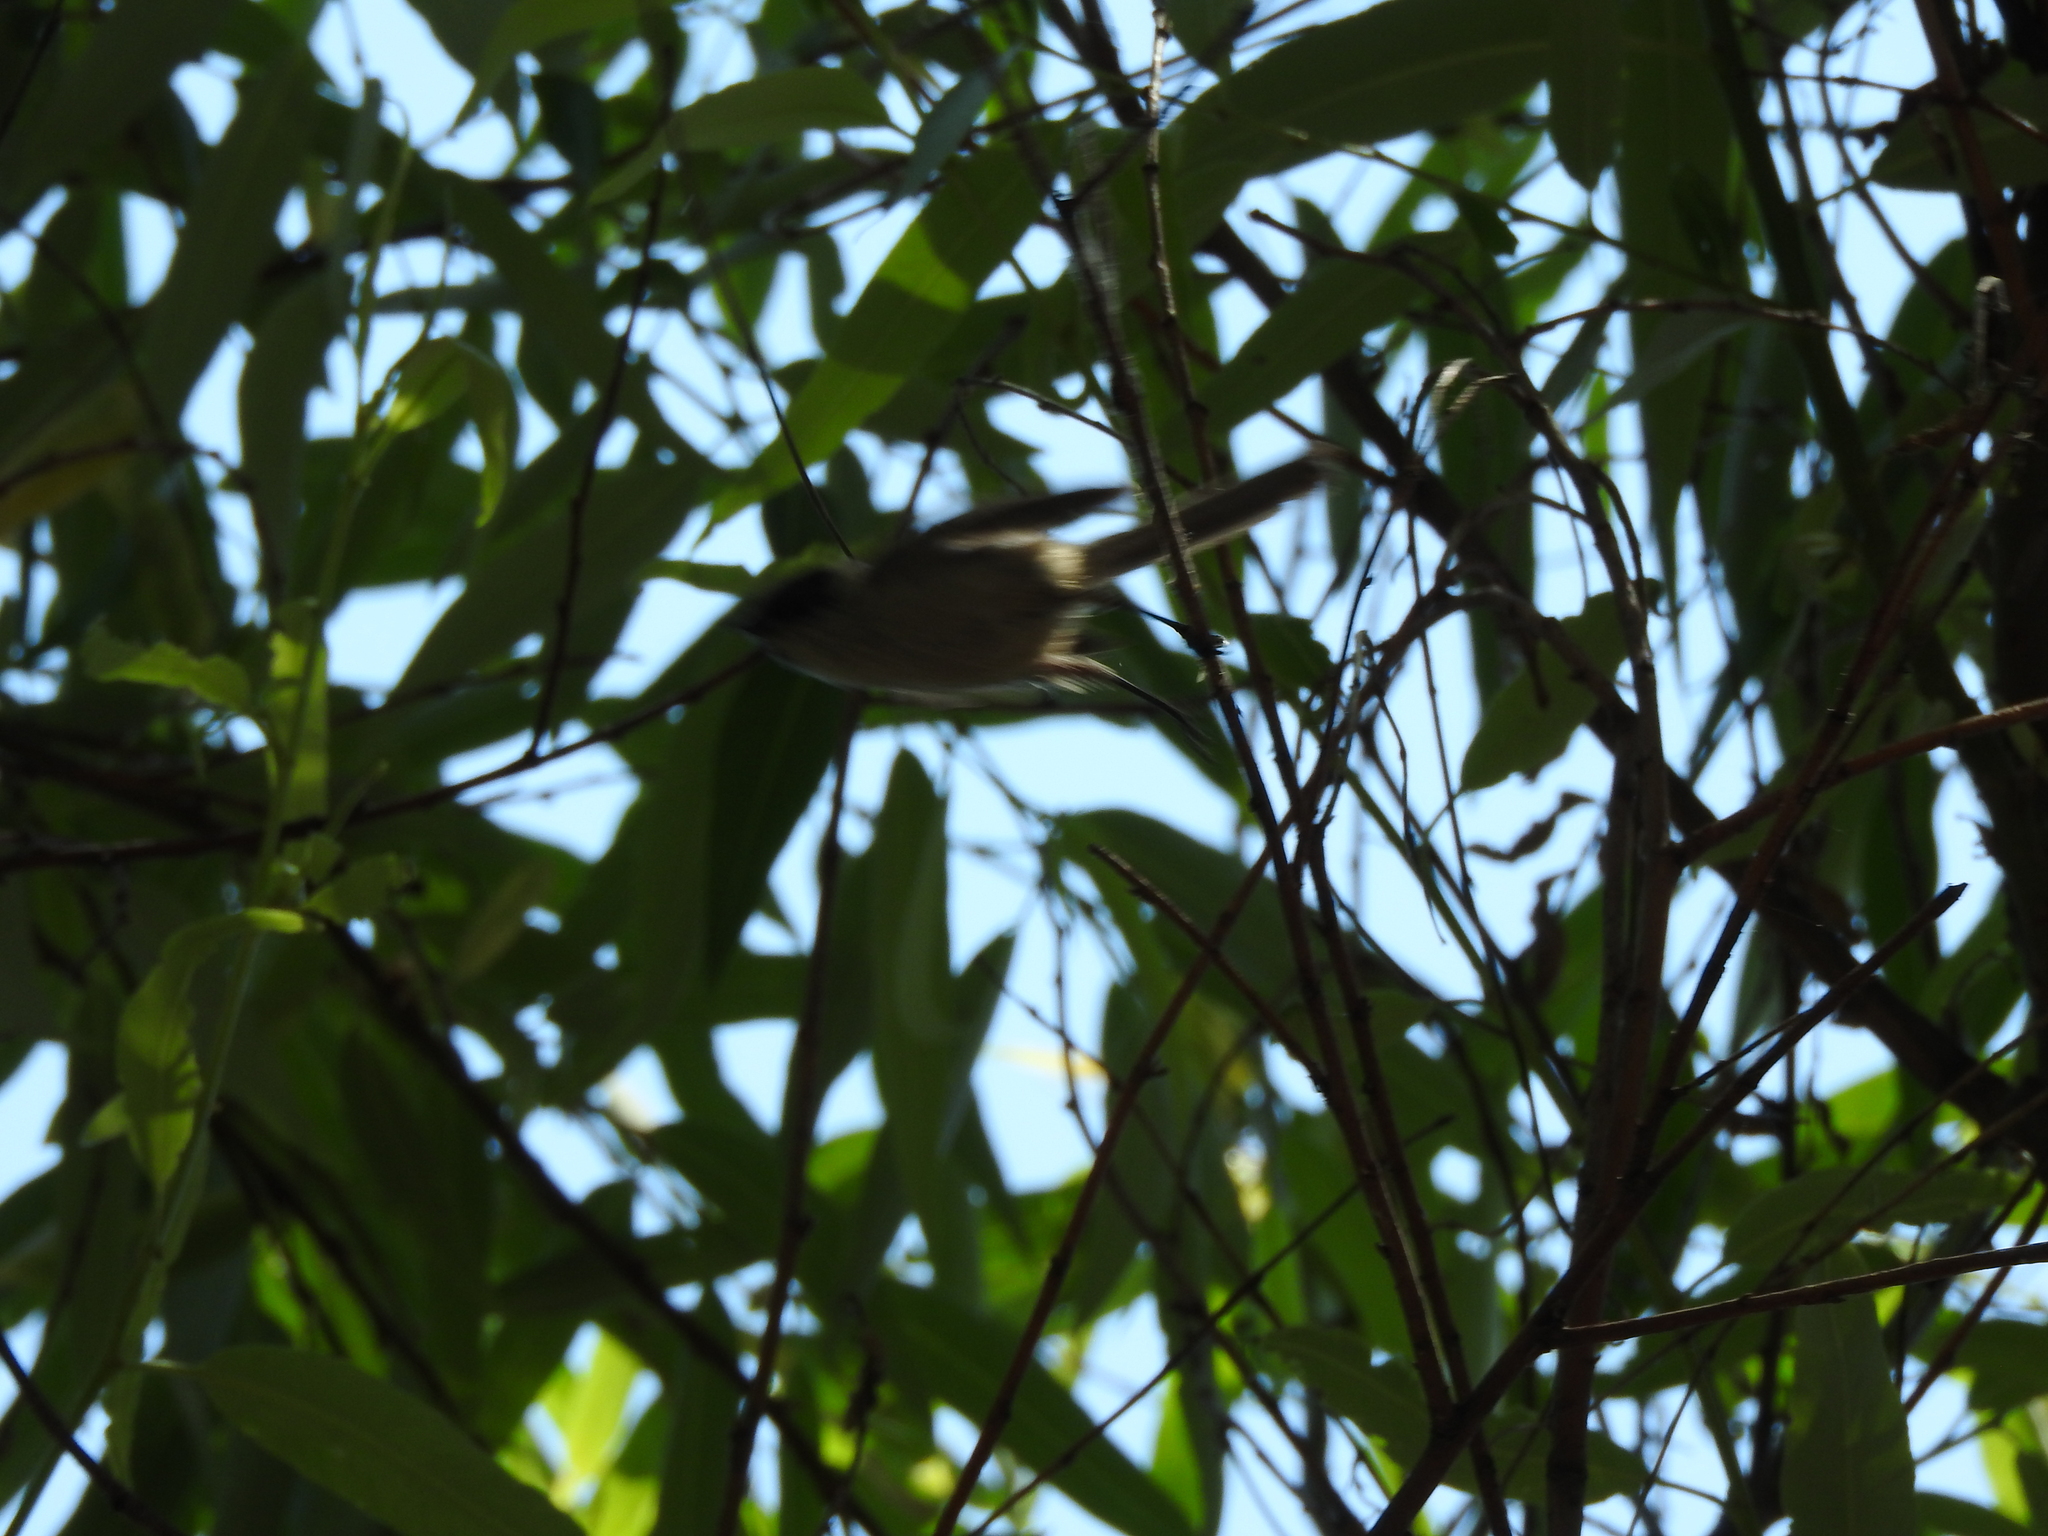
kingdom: Animalia
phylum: Chordata
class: Aves
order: Passeriformes
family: Aegithalidae
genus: Psaltriparus
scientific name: Psaltriparus minimus
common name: American bushtit
